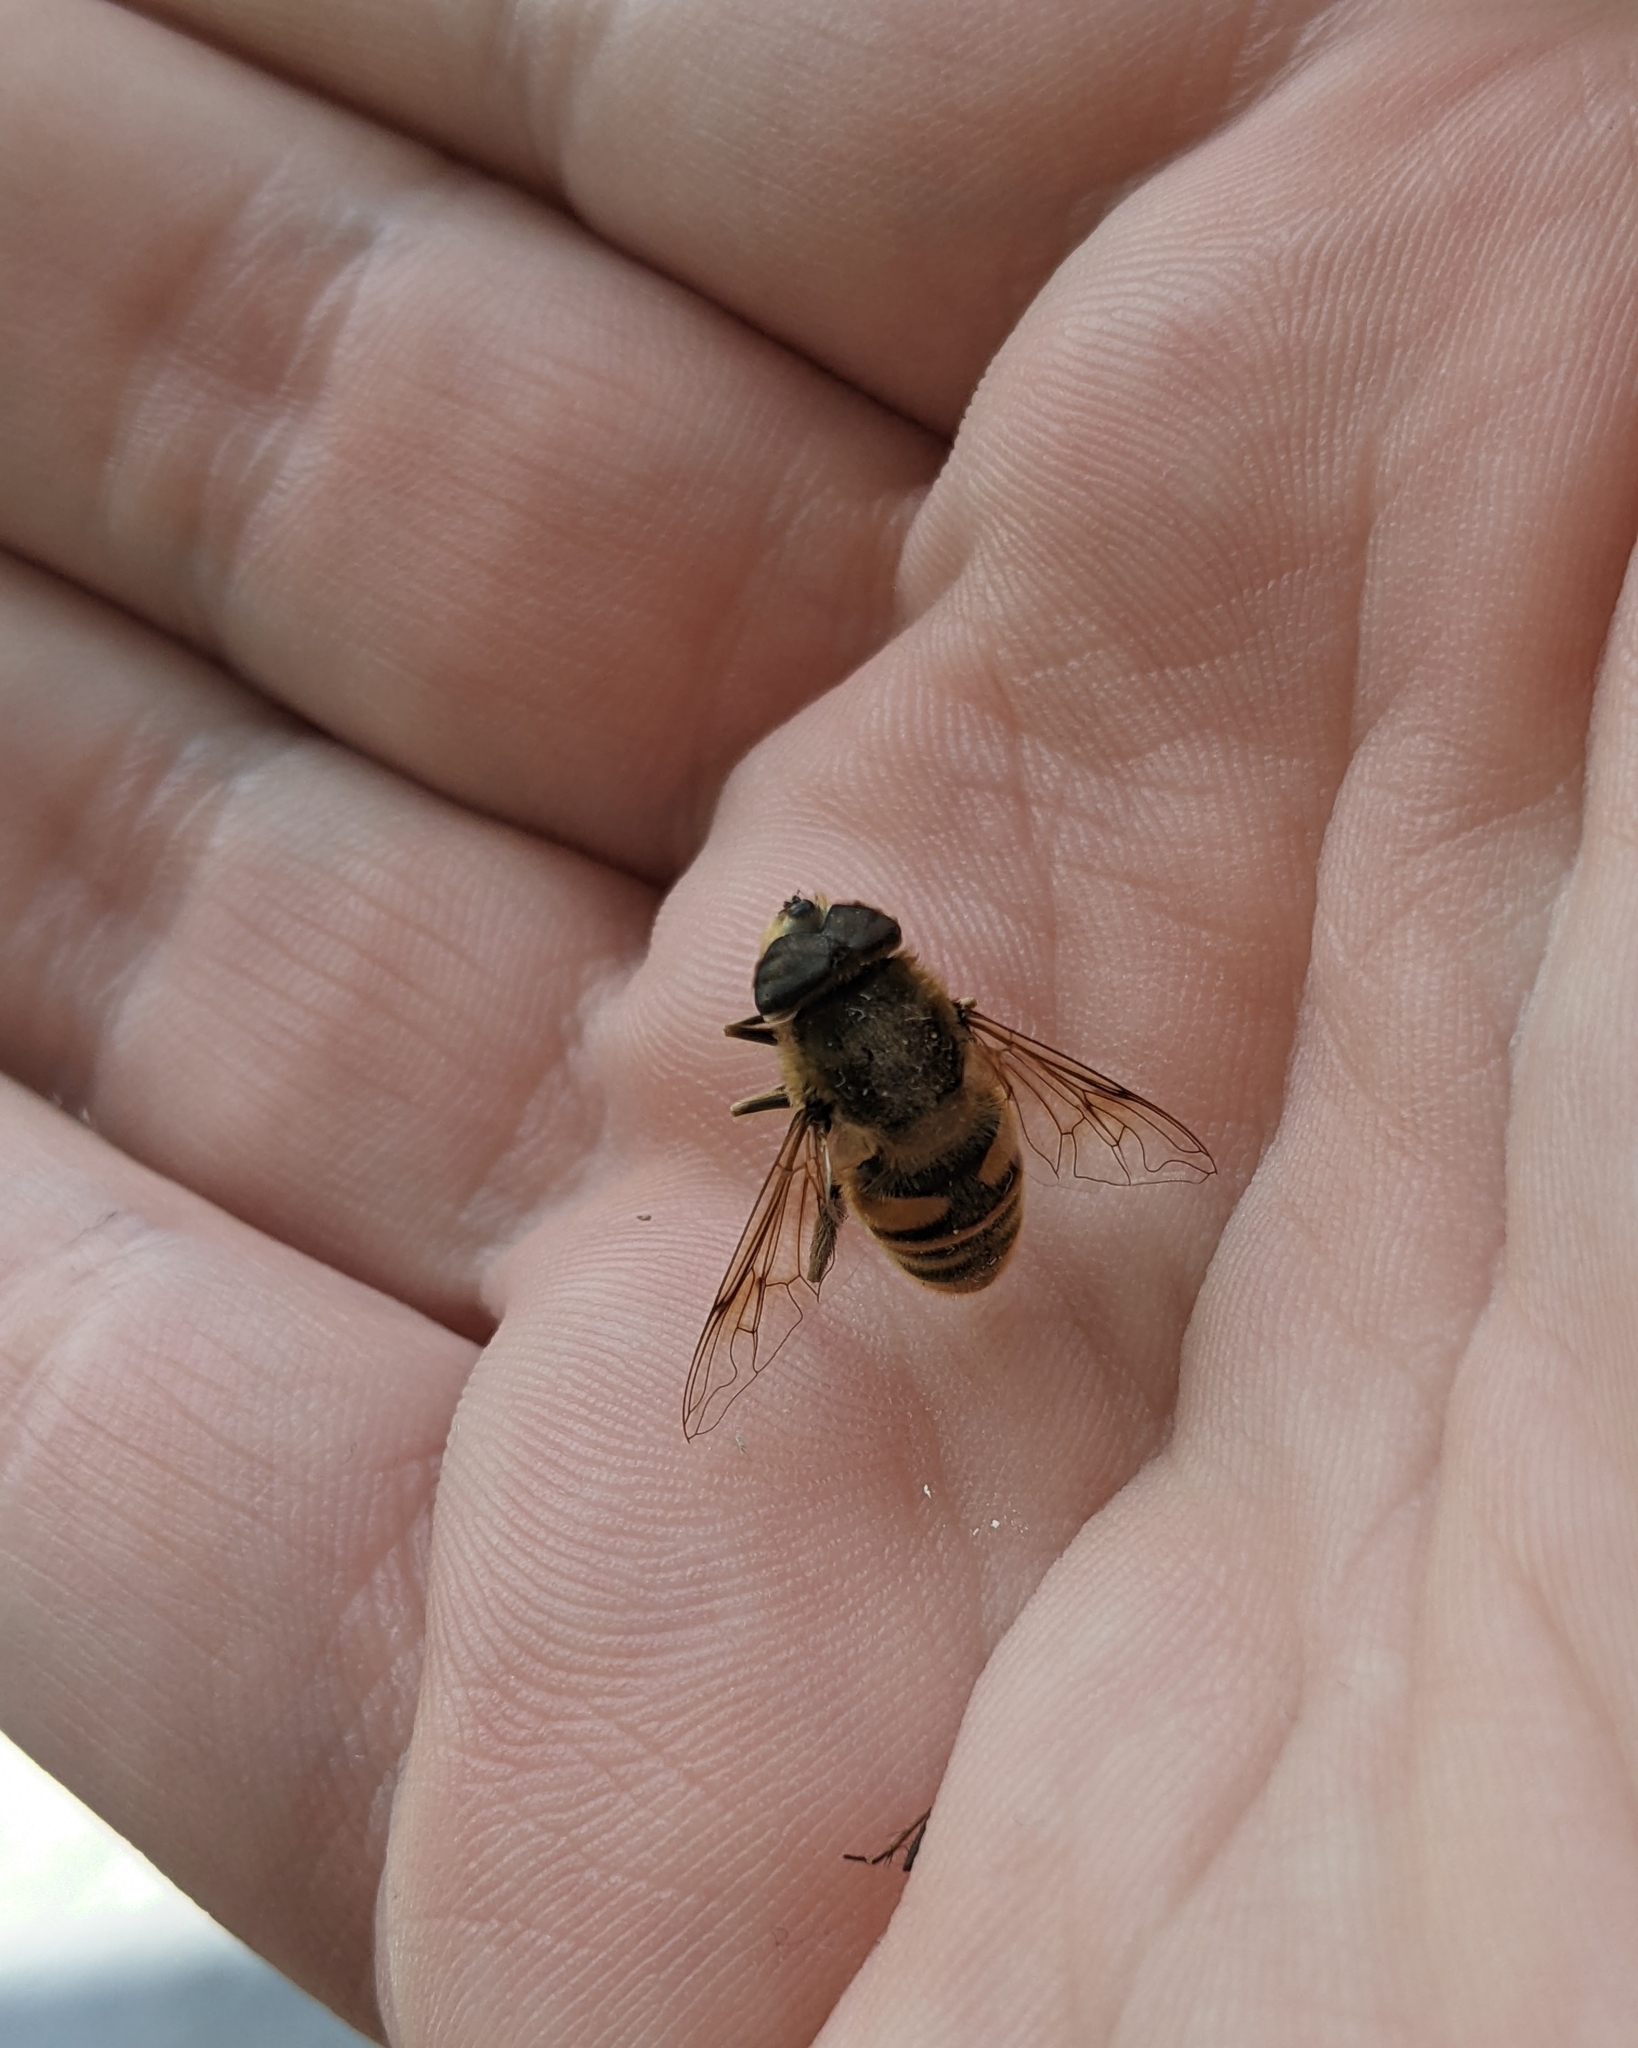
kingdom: Animalia
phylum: Arthropoda
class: Insecta
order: Diptera
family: Syrphidae
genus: Eristalis
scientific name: Eristalis tenax
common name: Drone fly
